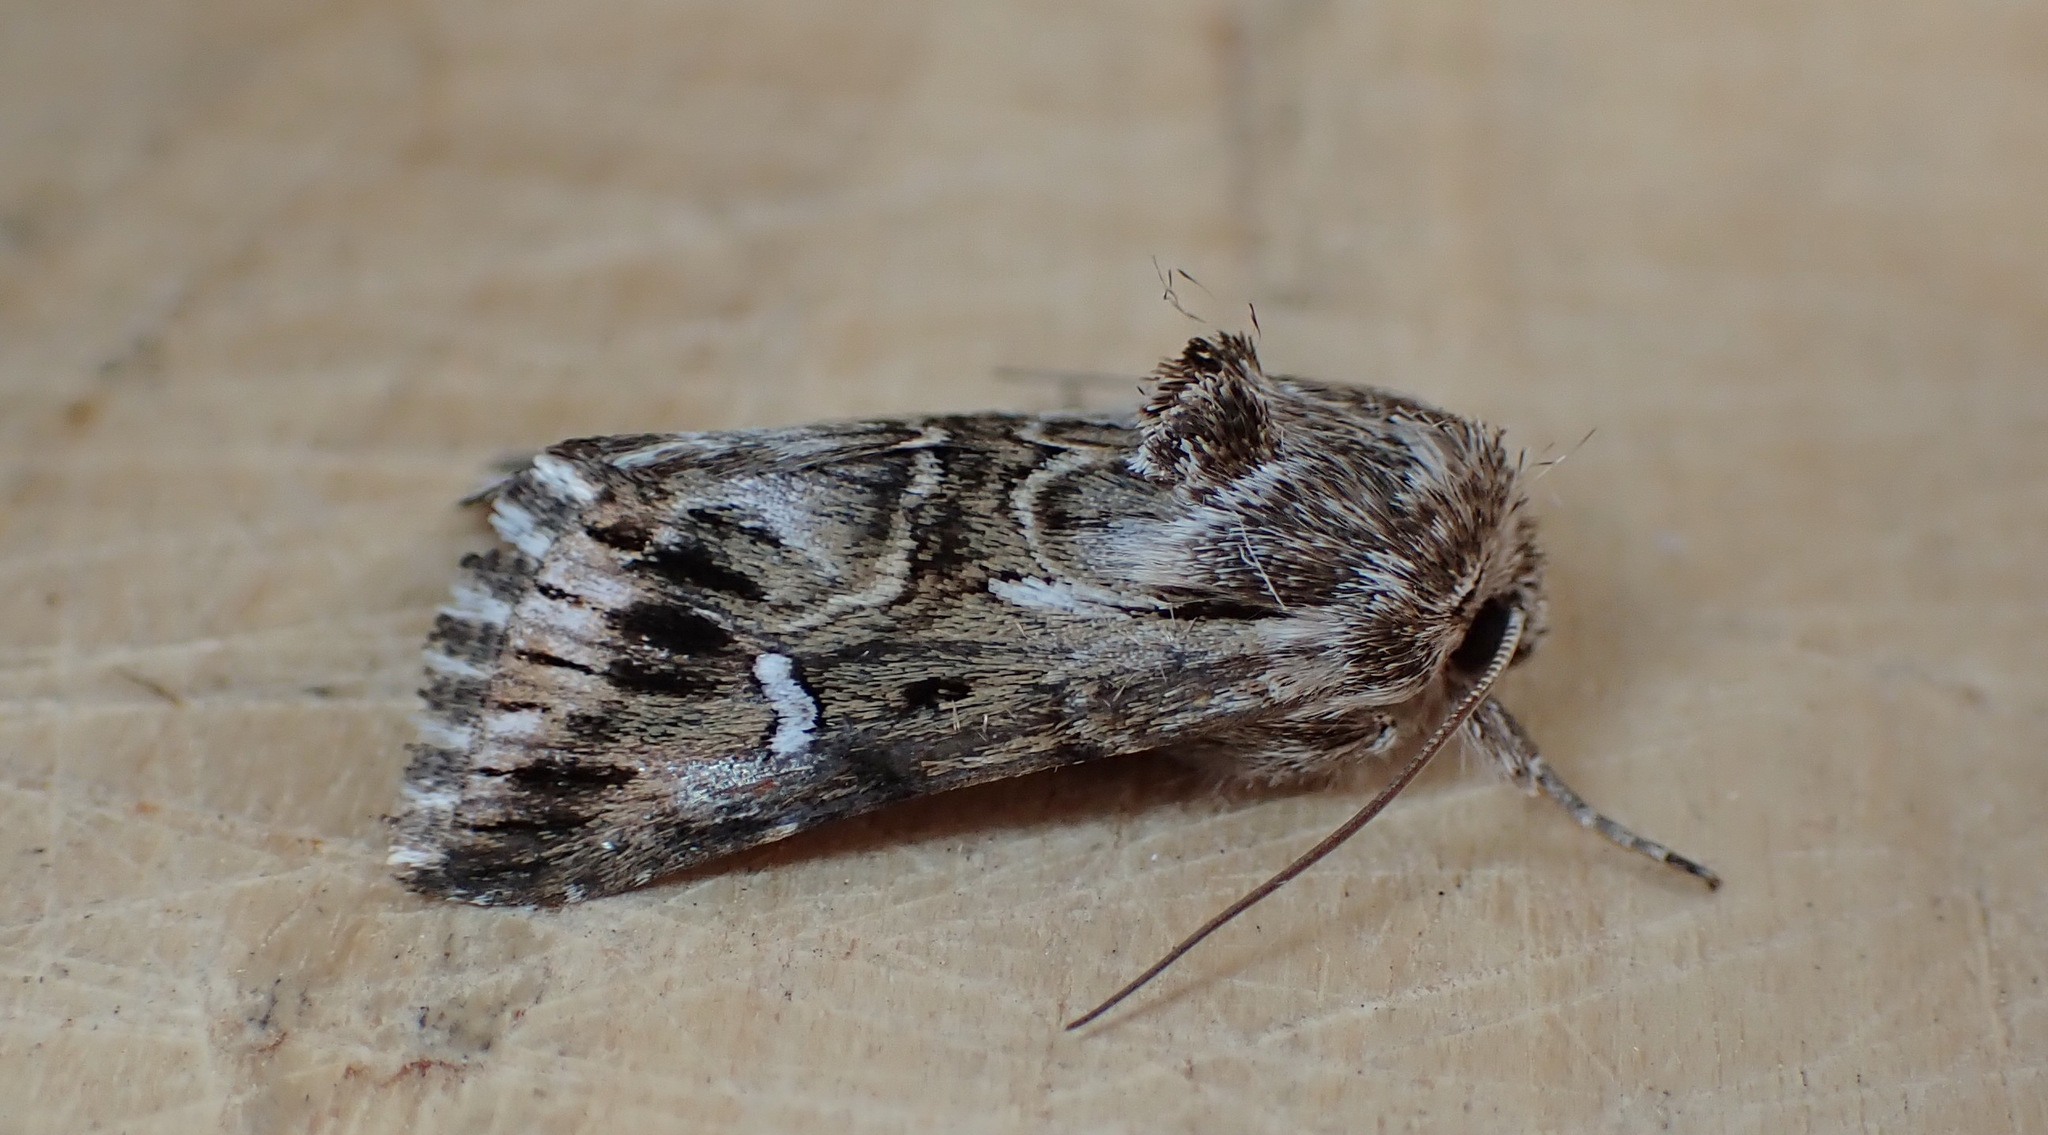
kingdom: Animalia
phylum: Arthropoda
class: Insecta
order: Lepidoptera
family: Noctuidae
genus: Calophasia
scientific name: Calophasia lunula
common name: Toadflax brocade
